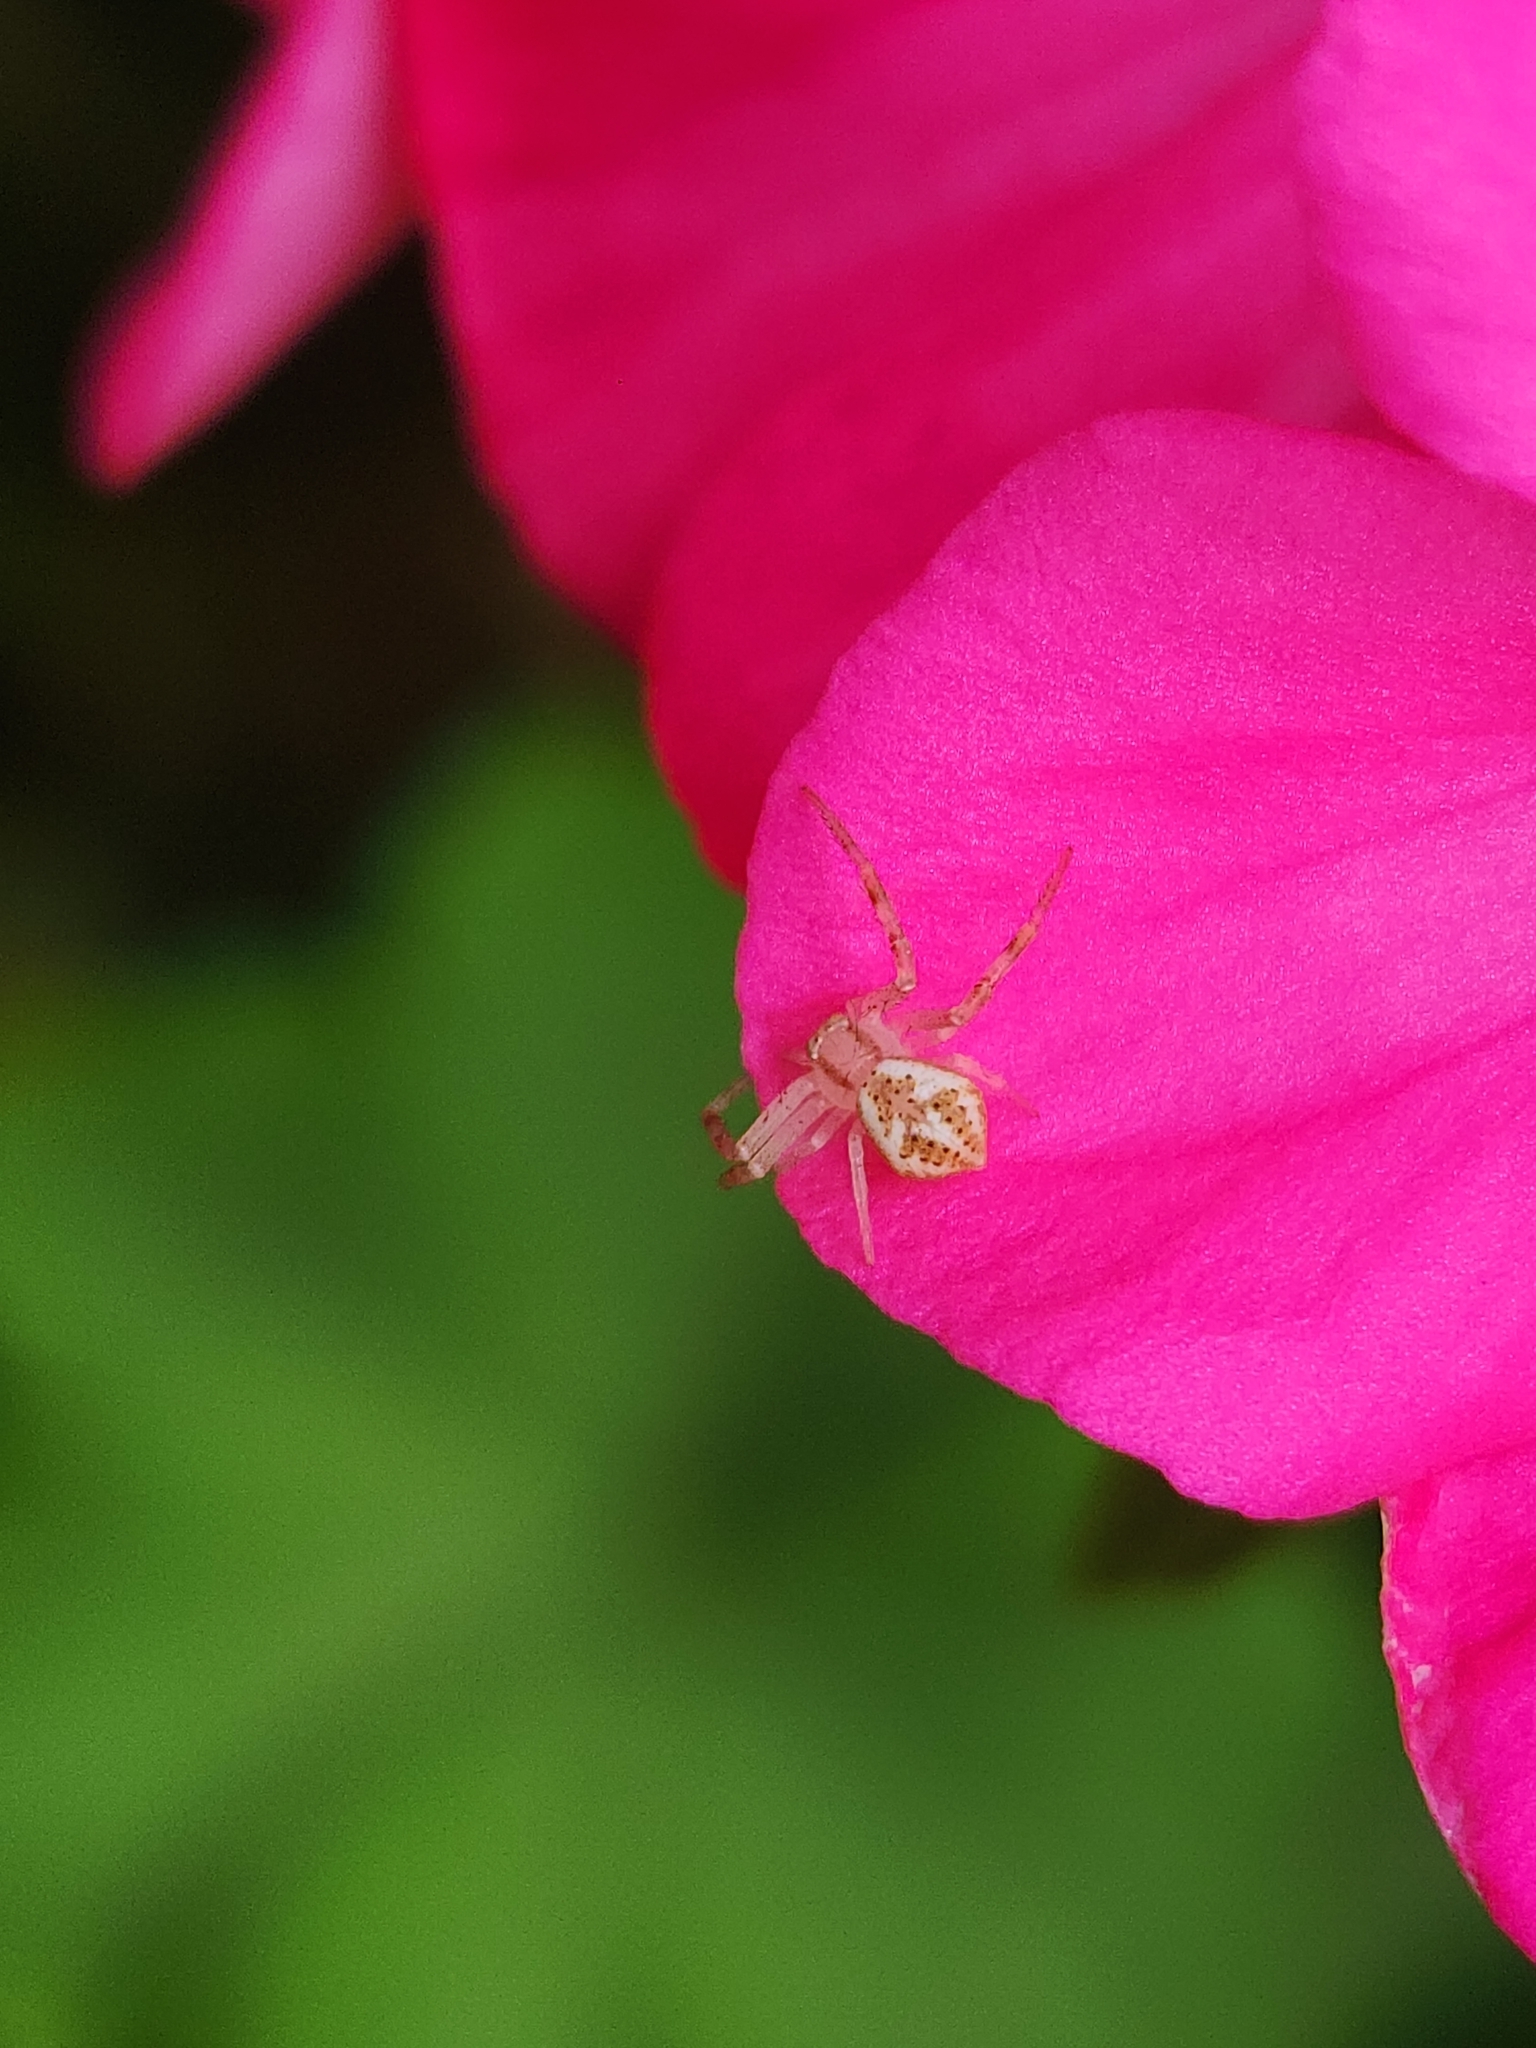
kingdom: Animalia
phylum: Arthropoda
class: Arachnida
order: Araneae
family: Thomisidae
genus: Misumenops
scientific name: Misumenops
